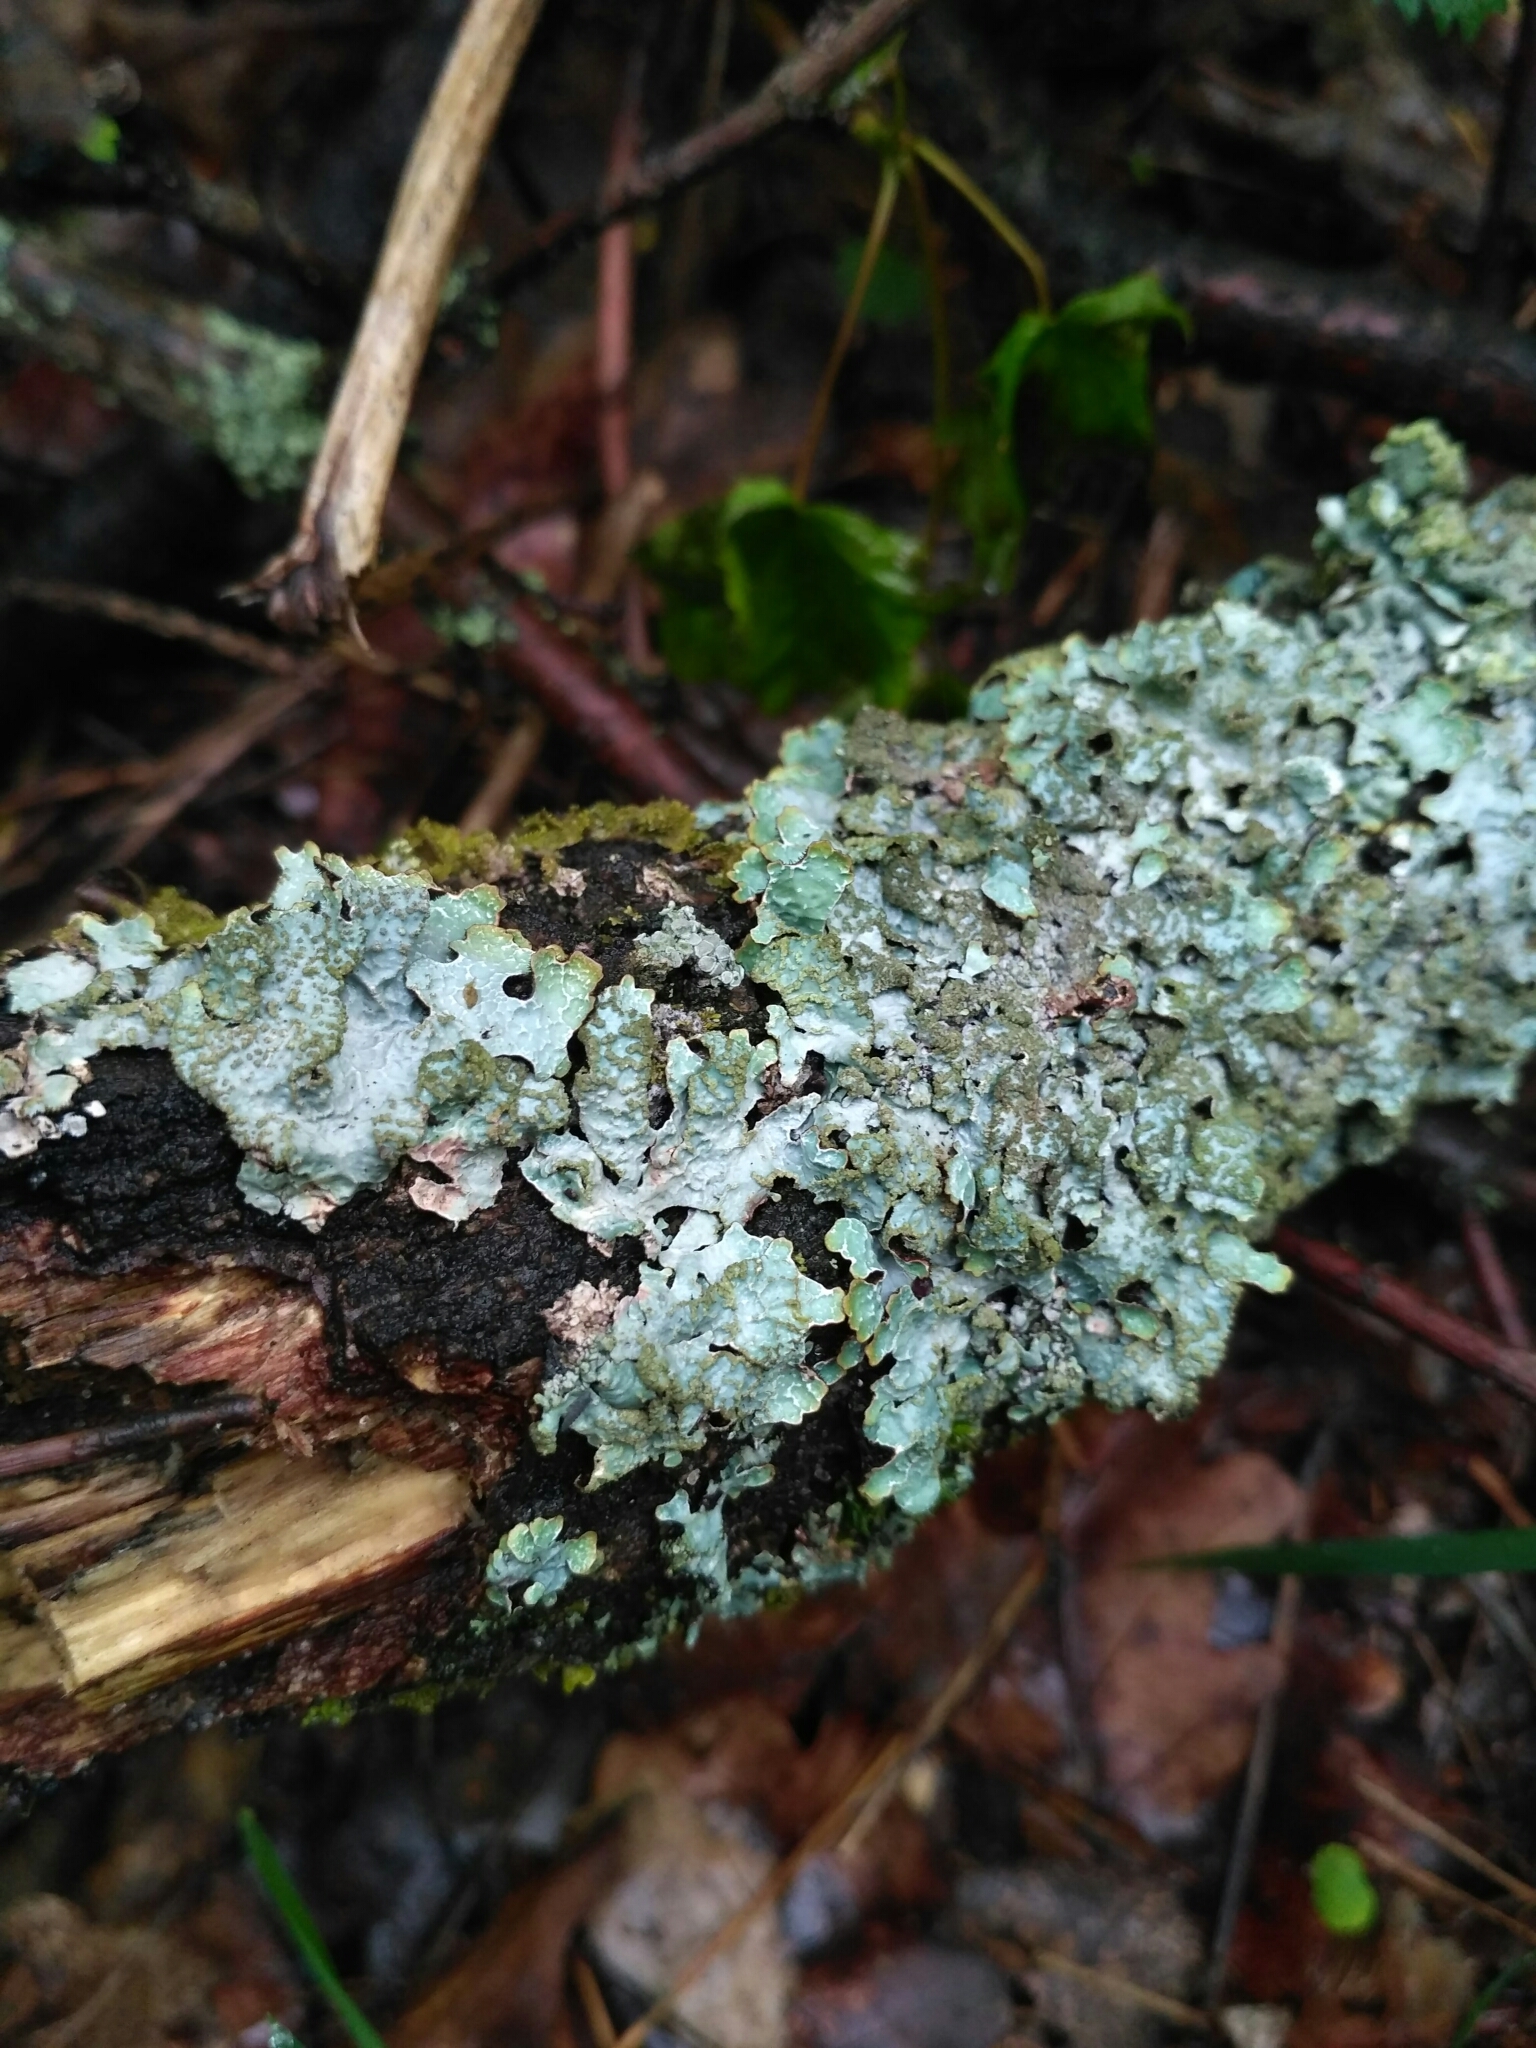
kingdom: Fungi
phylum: Ascomycota
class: Lecanoromycetes
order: Lecanorales
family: Parmeliaceae
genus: Parmelia
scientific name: Parmelia sulcata
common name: Netted shield lichen
